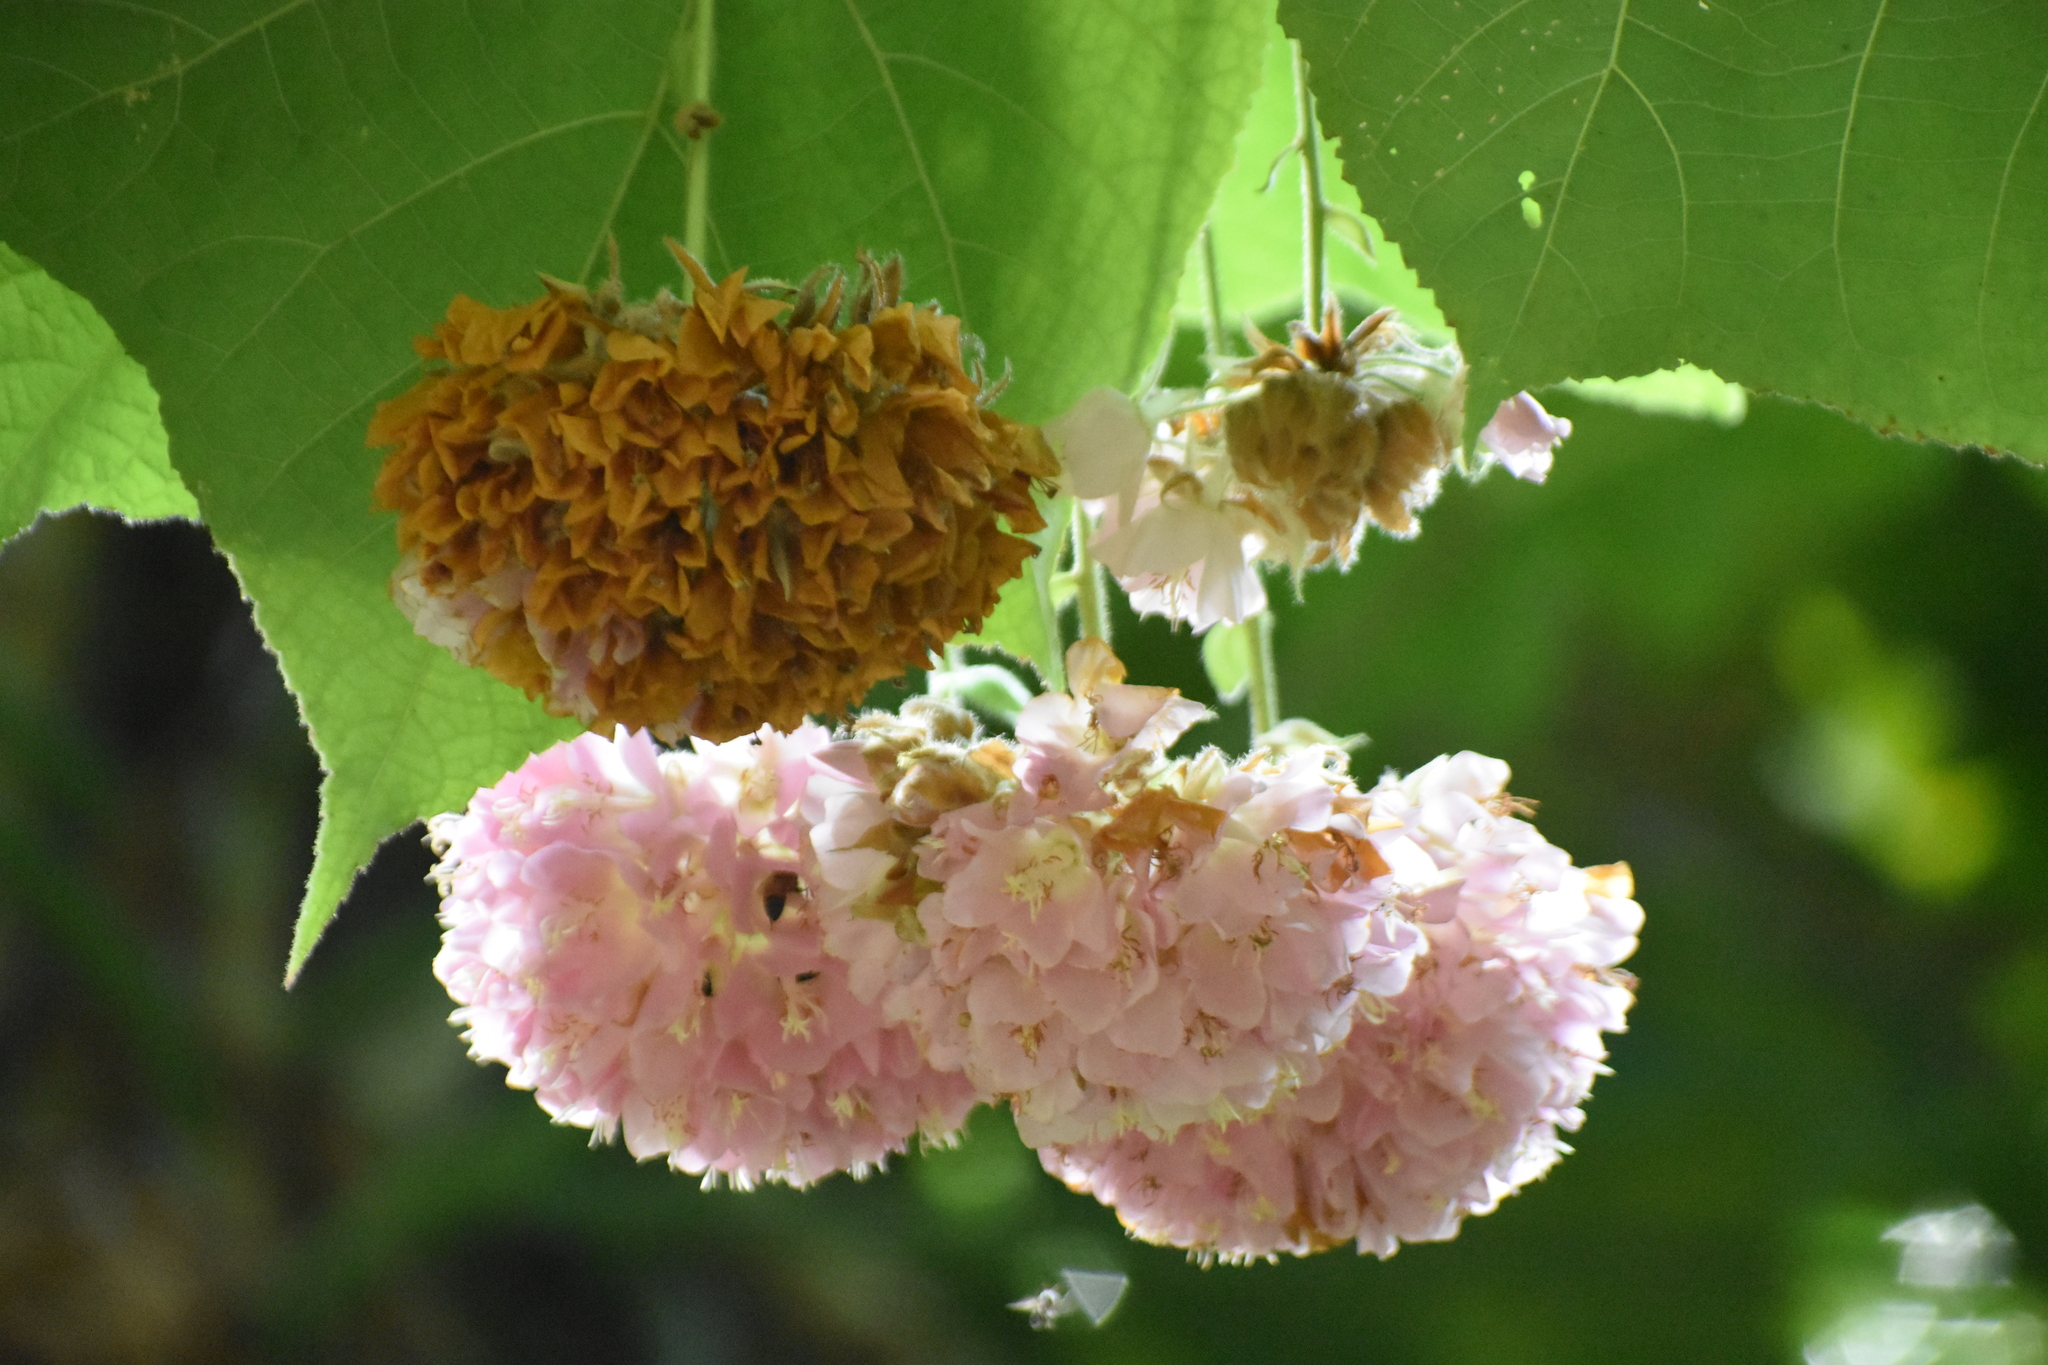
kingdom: Plantae
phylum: Tracheophyta
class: Magnoliopsida
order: Malvales
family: Malvaceae
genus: Dombeya
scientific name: Dombeya cayeuxii
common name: Pompomtree
